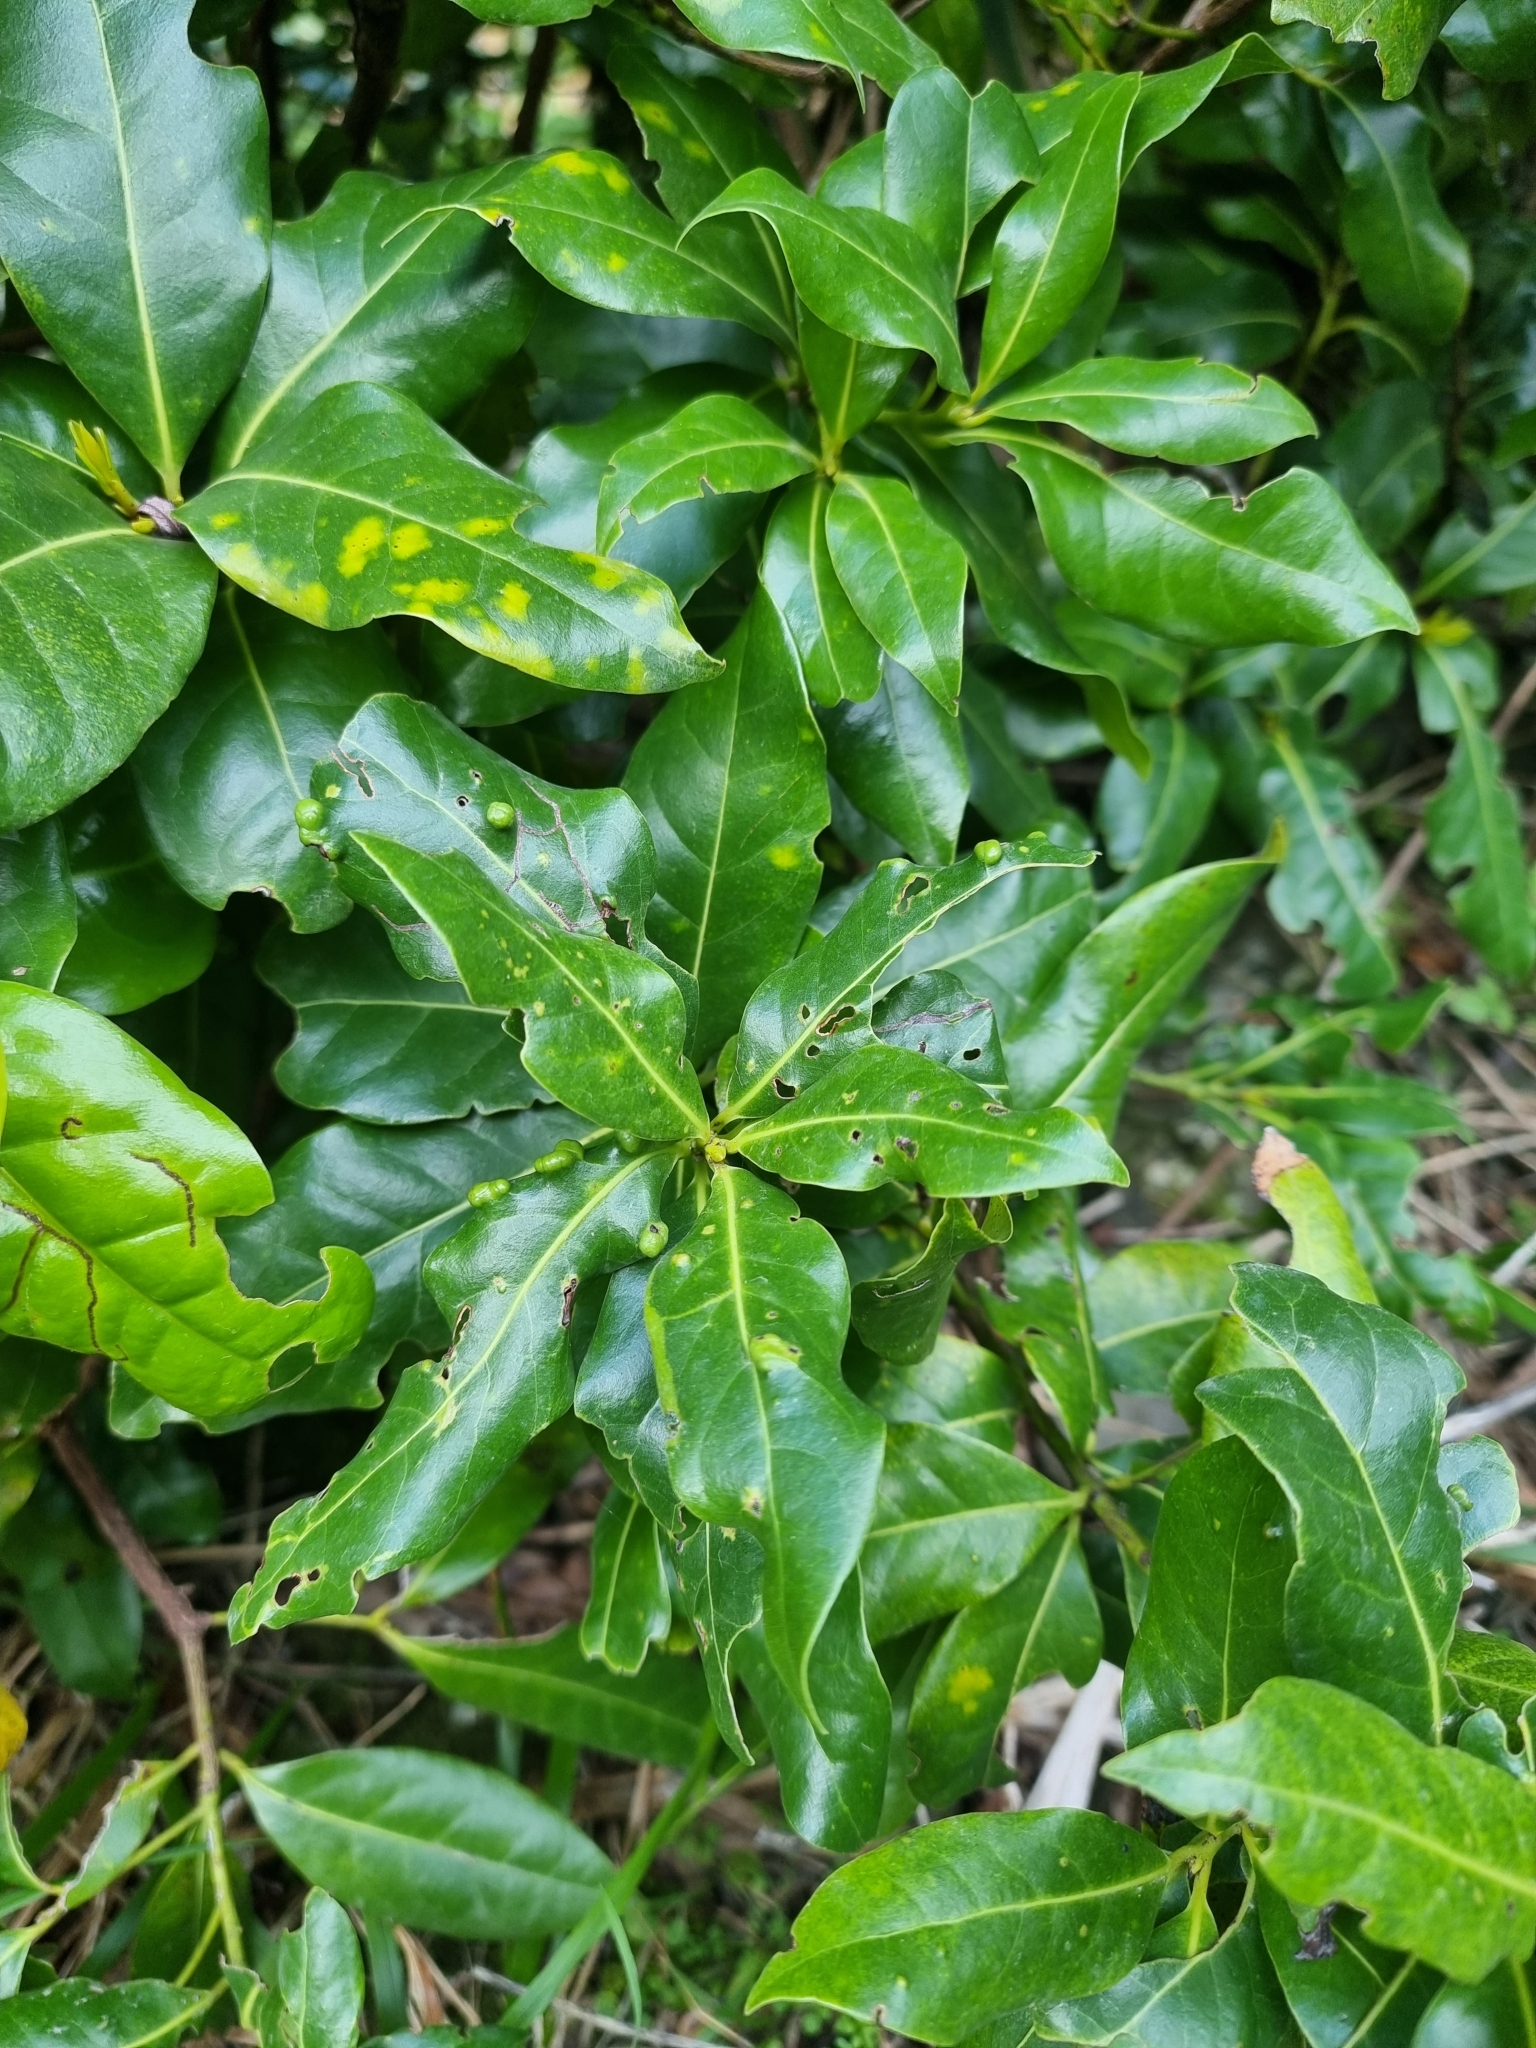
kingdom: Plantae
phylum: Tracheophyta
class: Magnoliopsida
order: Laurales
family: Lauraceae
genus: Apollonias
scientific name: Apollonias barbujana
